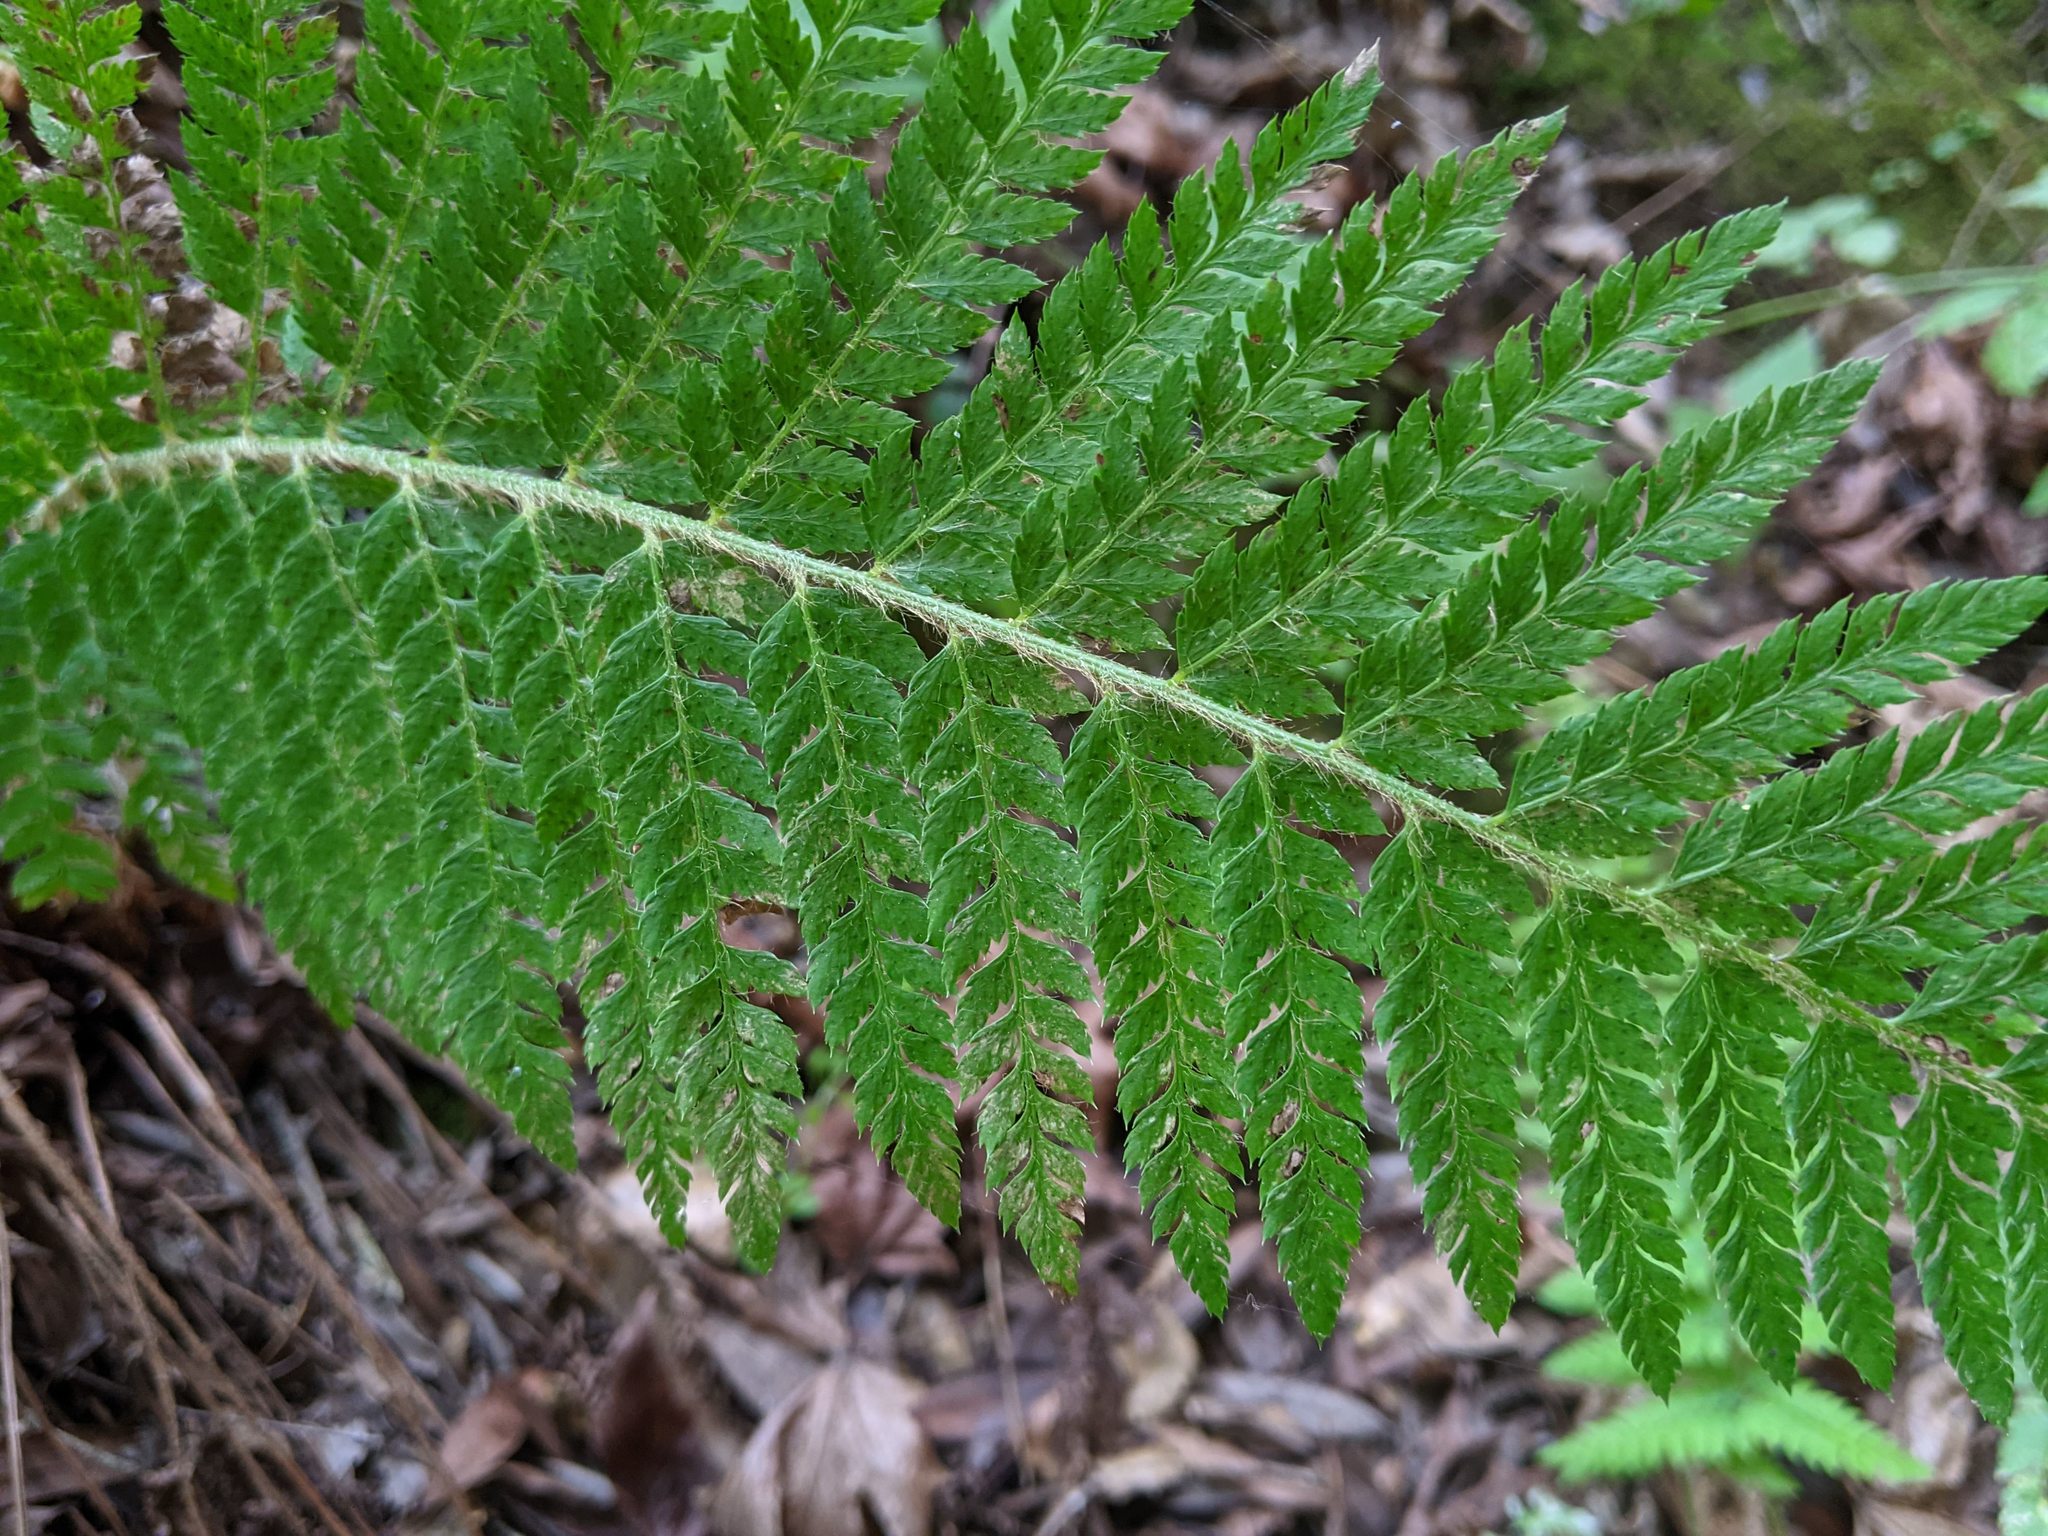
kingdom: Plantae
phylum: Tracheophyta
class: Polypodiopsida
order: Polypodiales
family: Dryopteridaceae
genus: Polystichum
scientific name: Polystichum dudleyi
